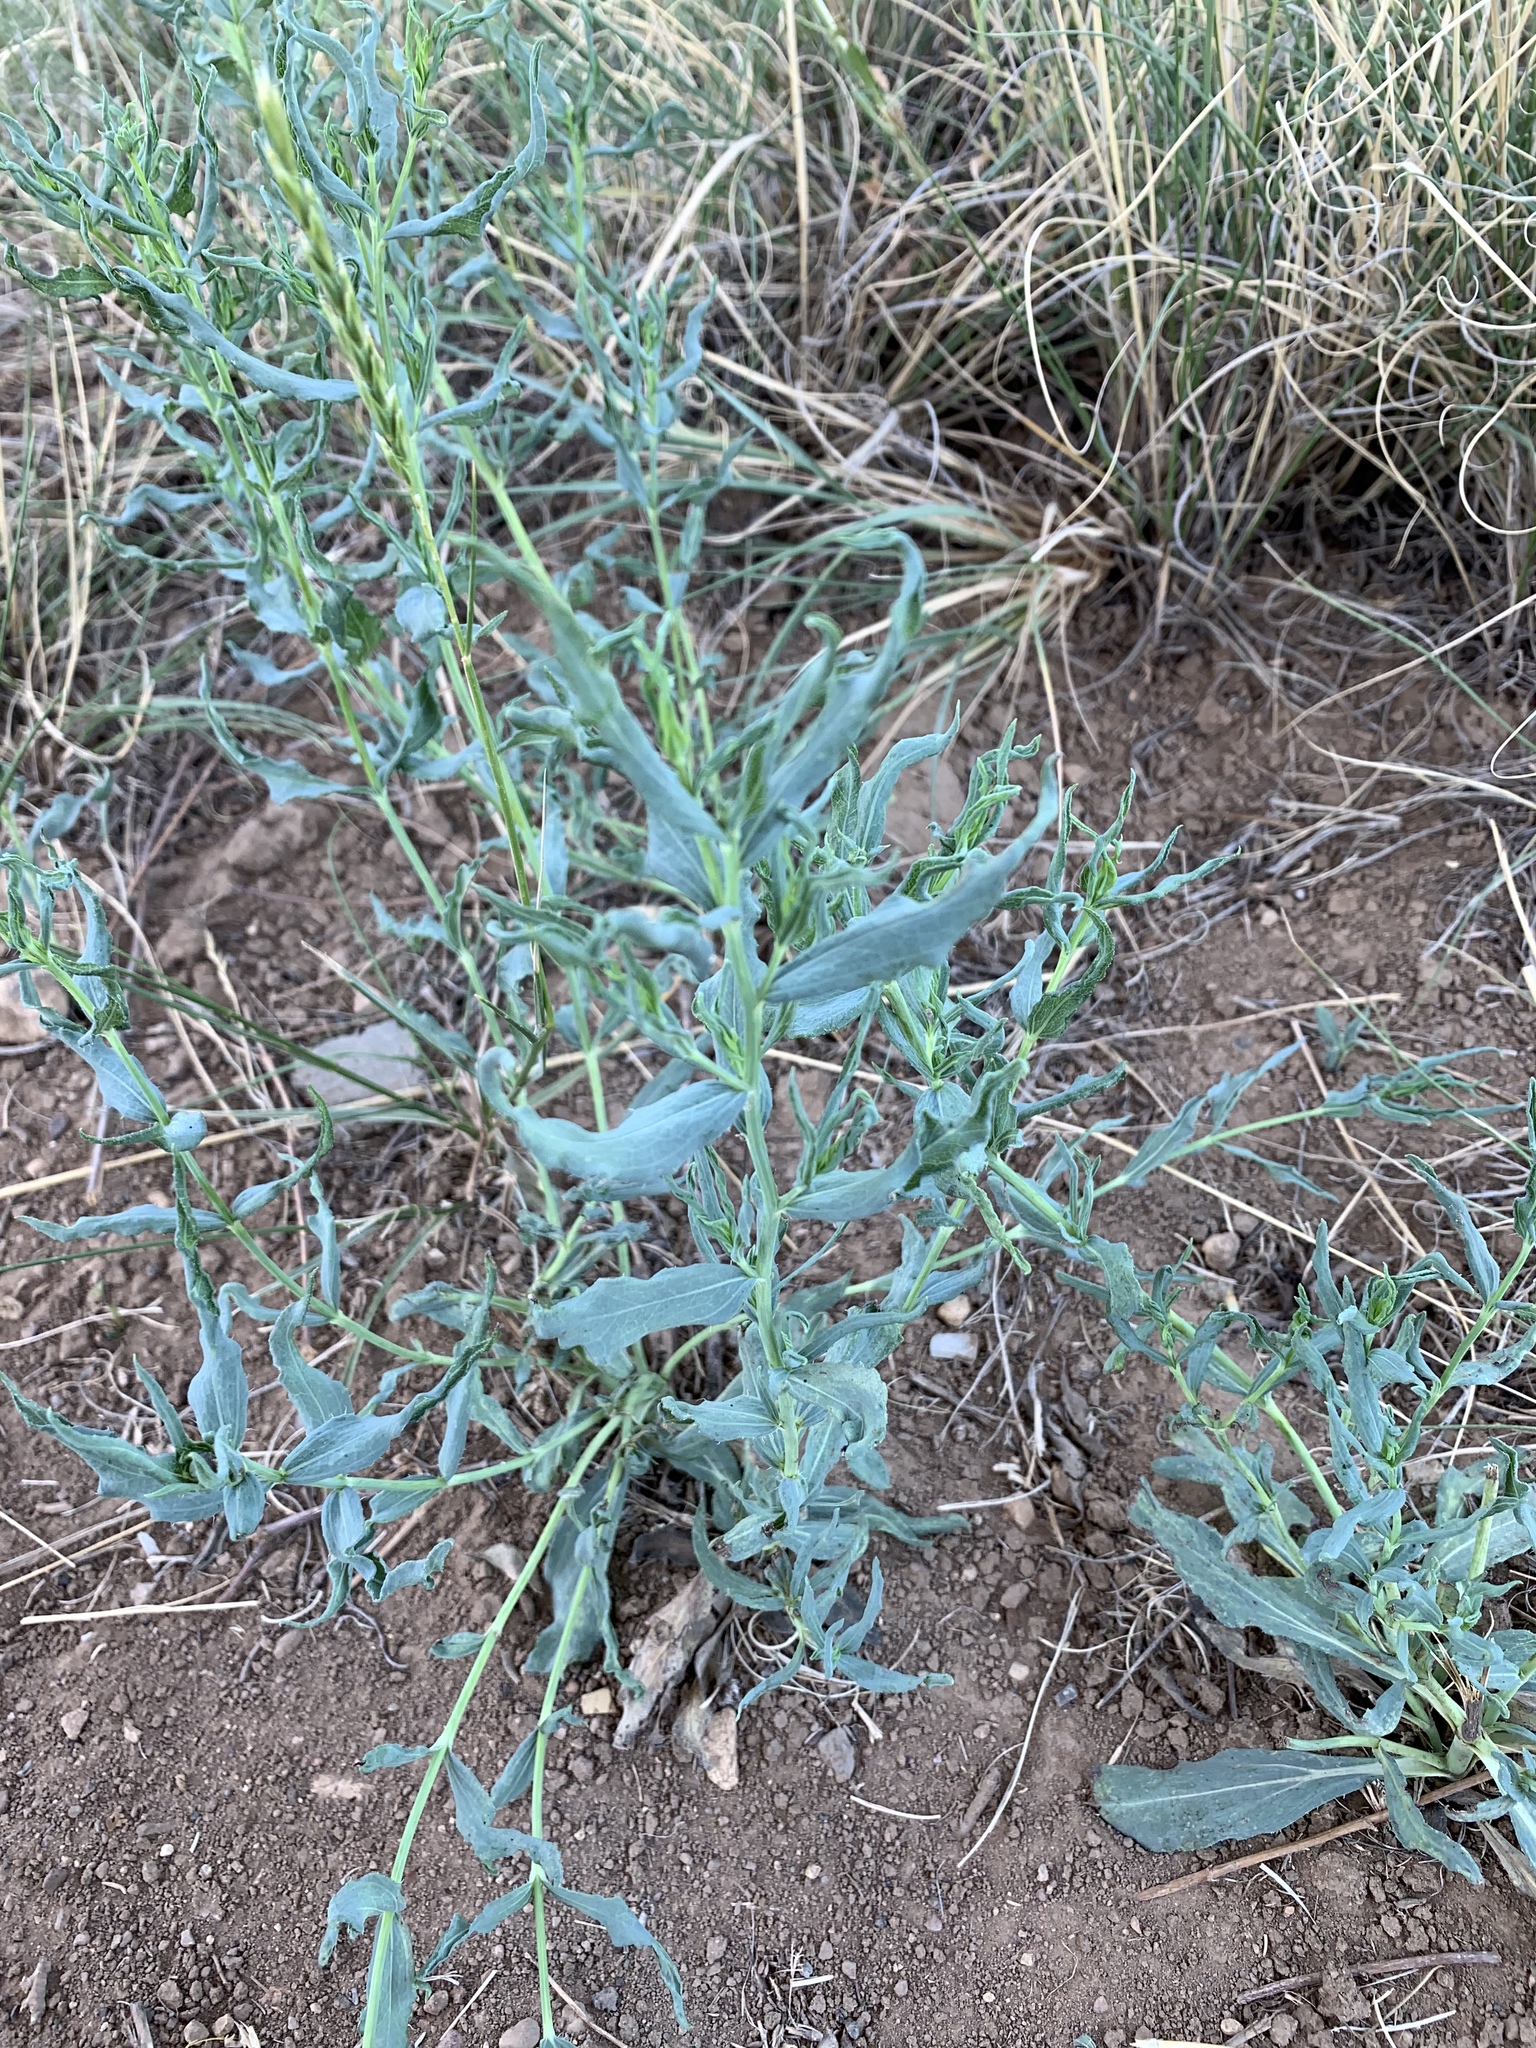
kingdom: Plantae
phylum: Tracheophyta
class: Magnoliopsida
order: Asterales
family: Asteraceae
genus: Helianthus
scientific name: Helianthus ciliaris
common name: Texas blueweed
